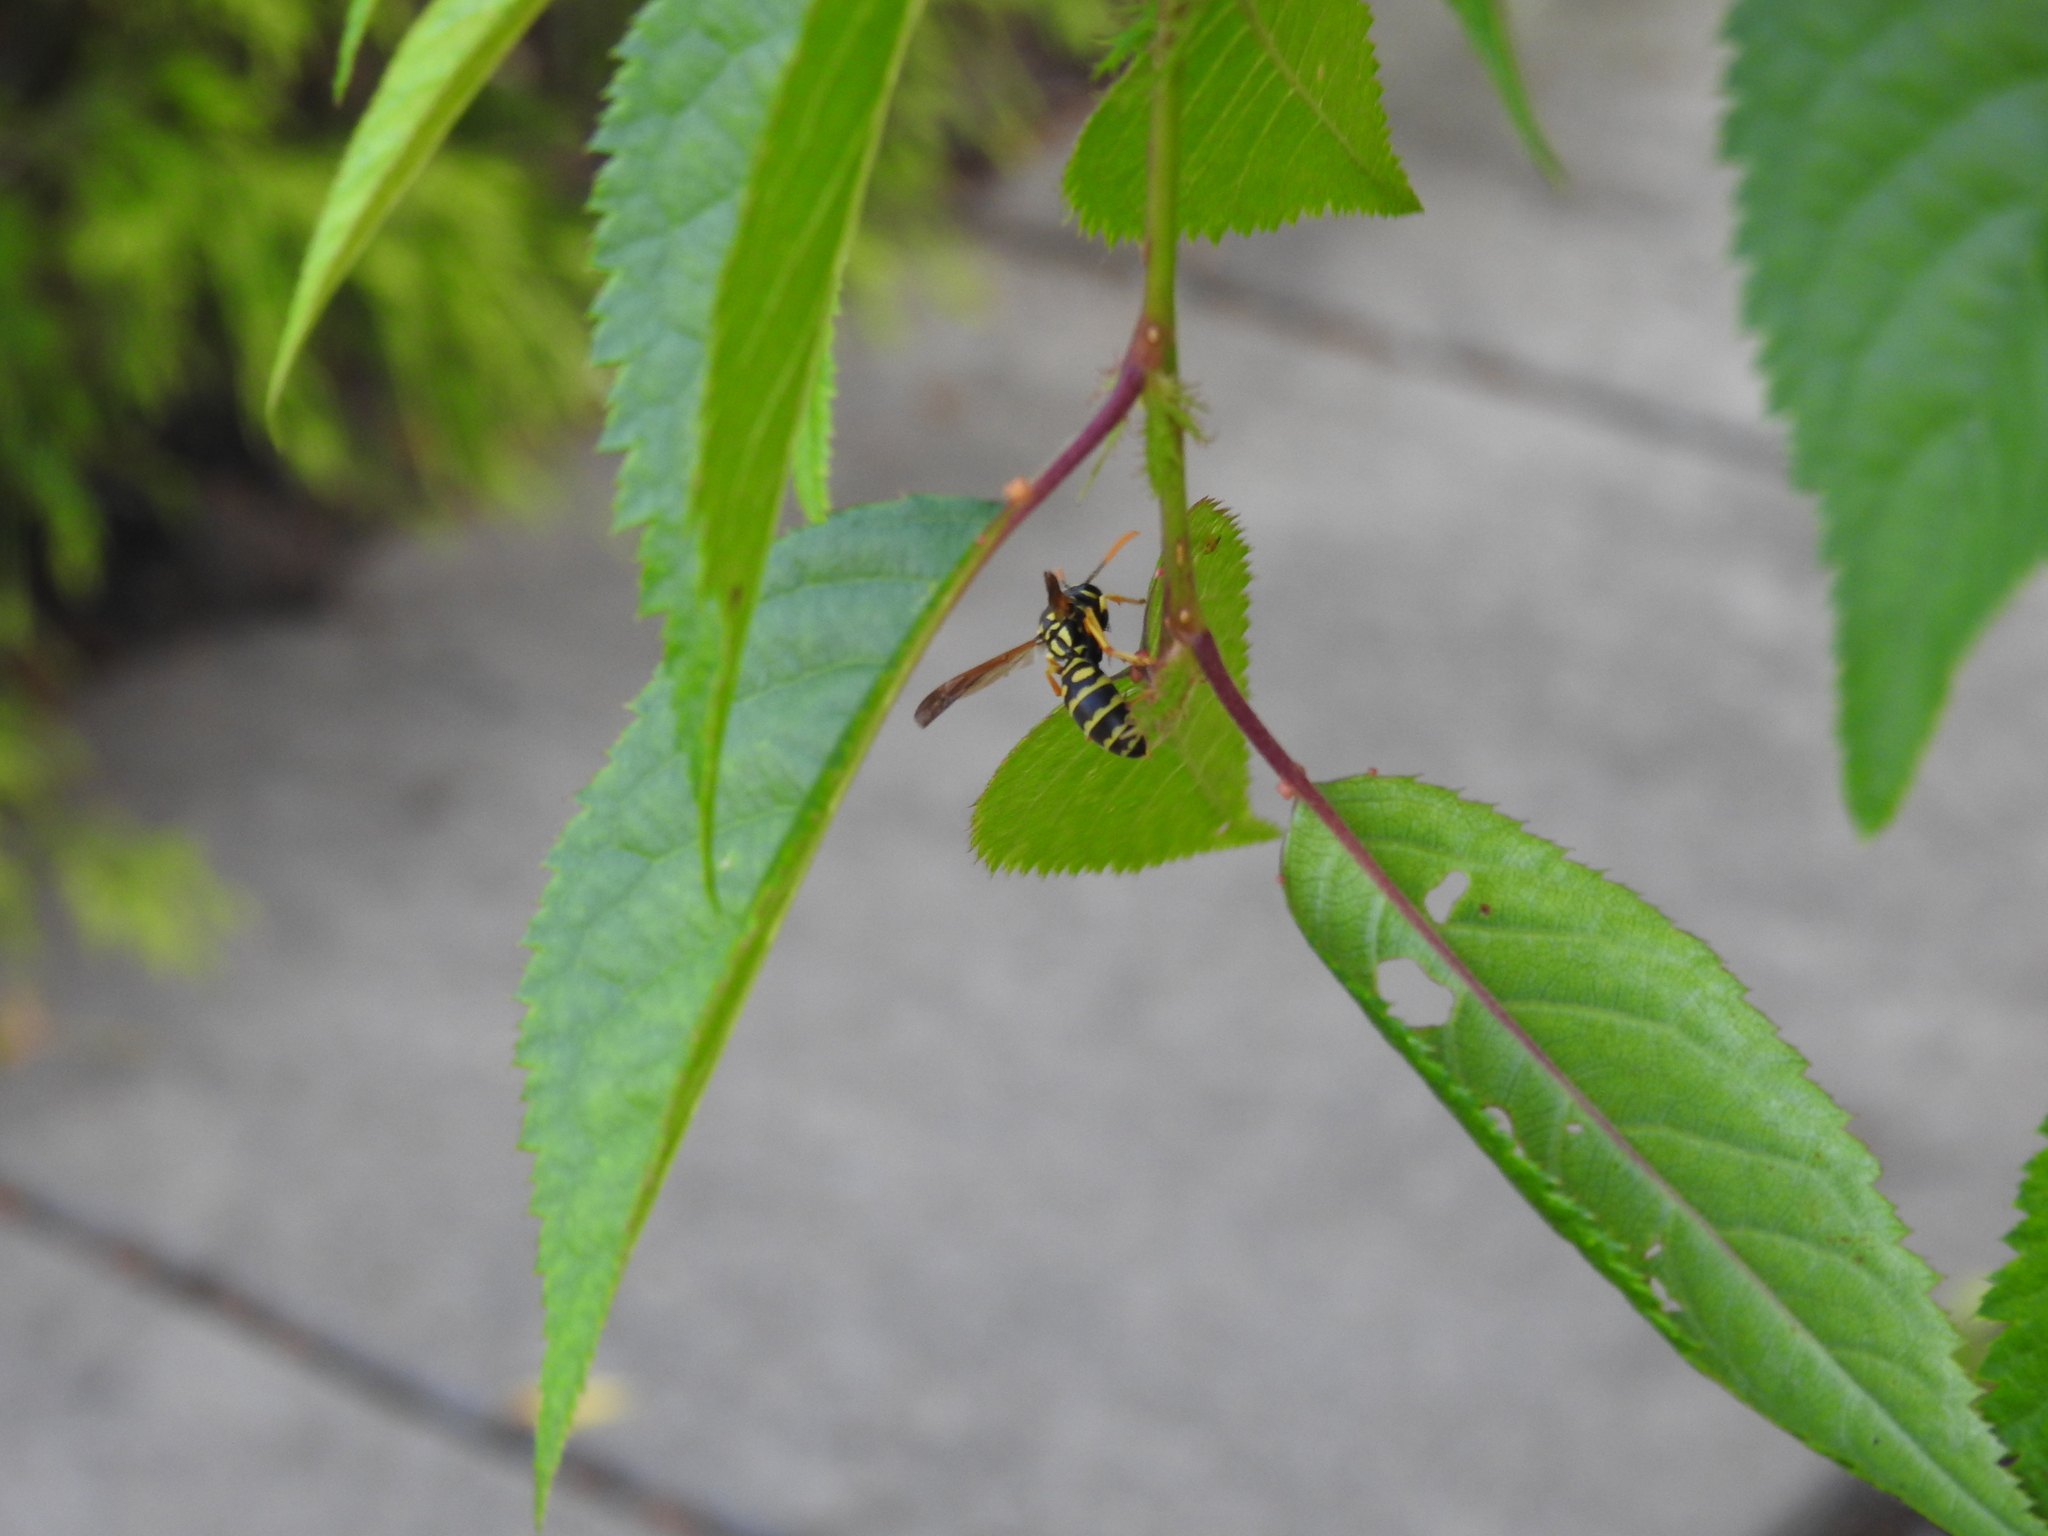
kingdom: Animalia
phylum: Arthropoda
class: Insecta
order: Hymenoptera
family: Eumenidae
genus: Polistes
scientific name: Polistes dominula
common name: Paper wasp
